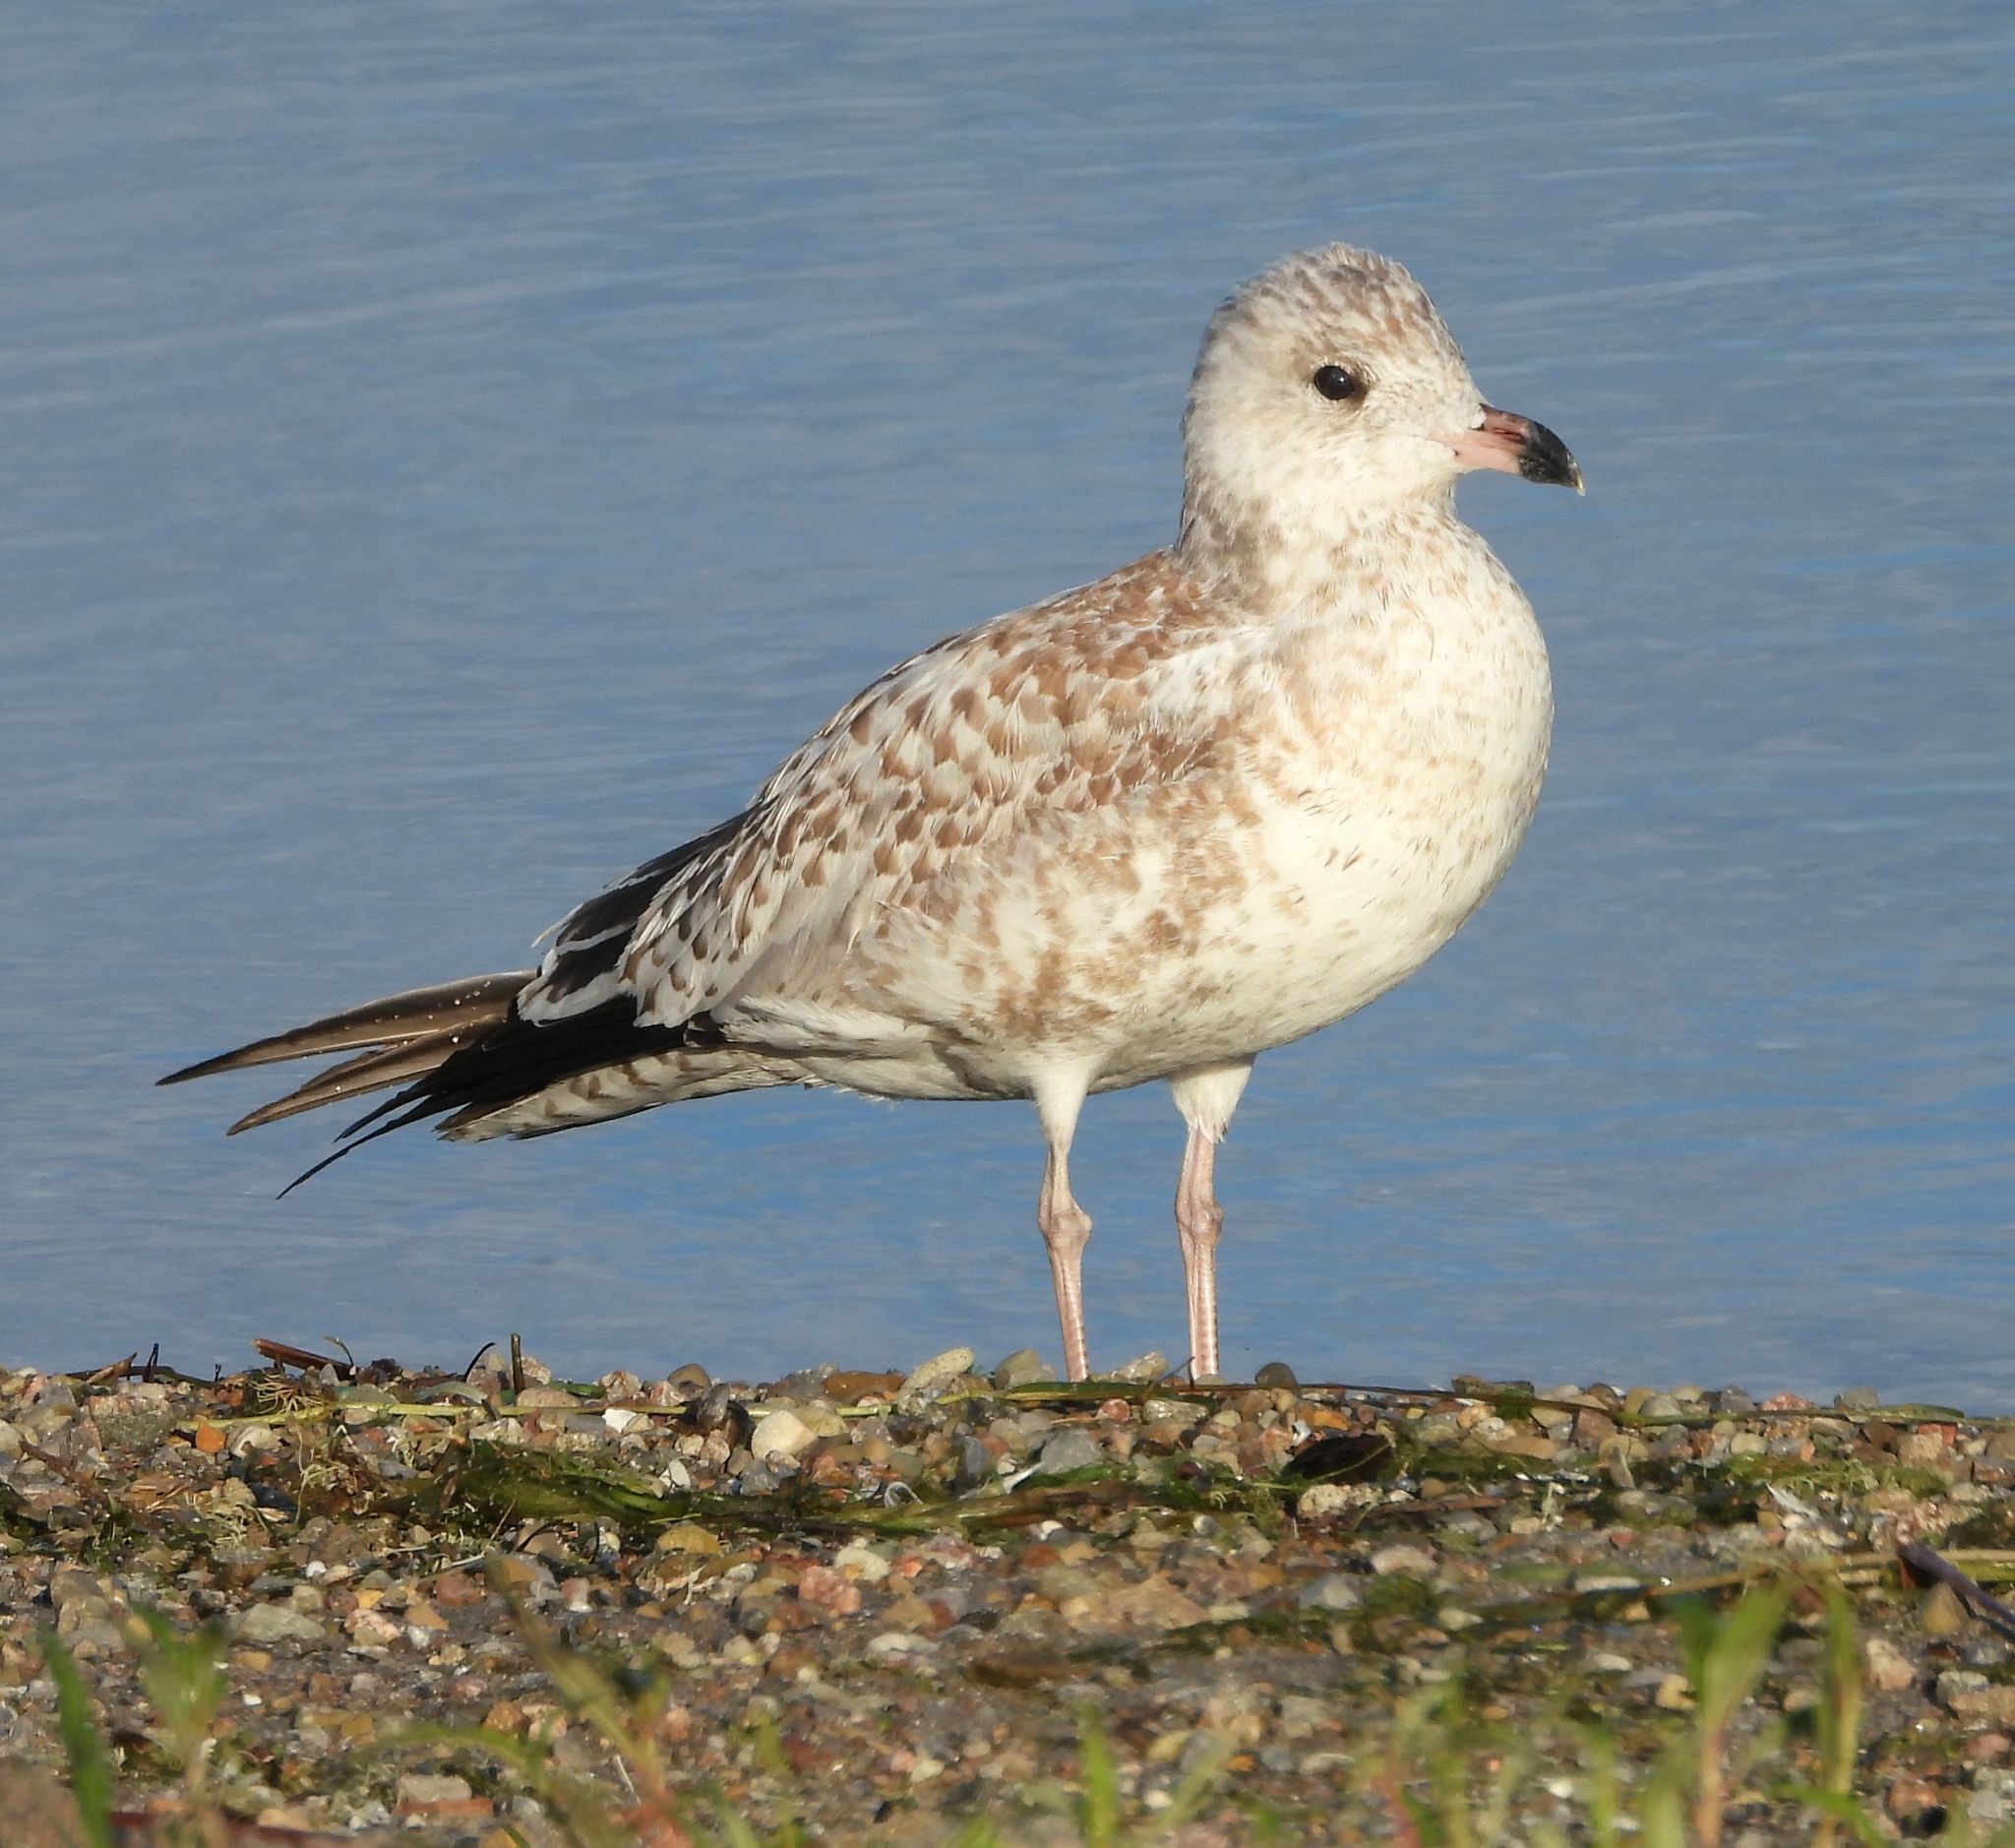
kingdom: Animalia
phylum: Chordata
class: Aves
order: Charadriiformes
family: Laridae
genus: Larus
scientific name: Larus delawarensis
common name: Ring-billed gull
